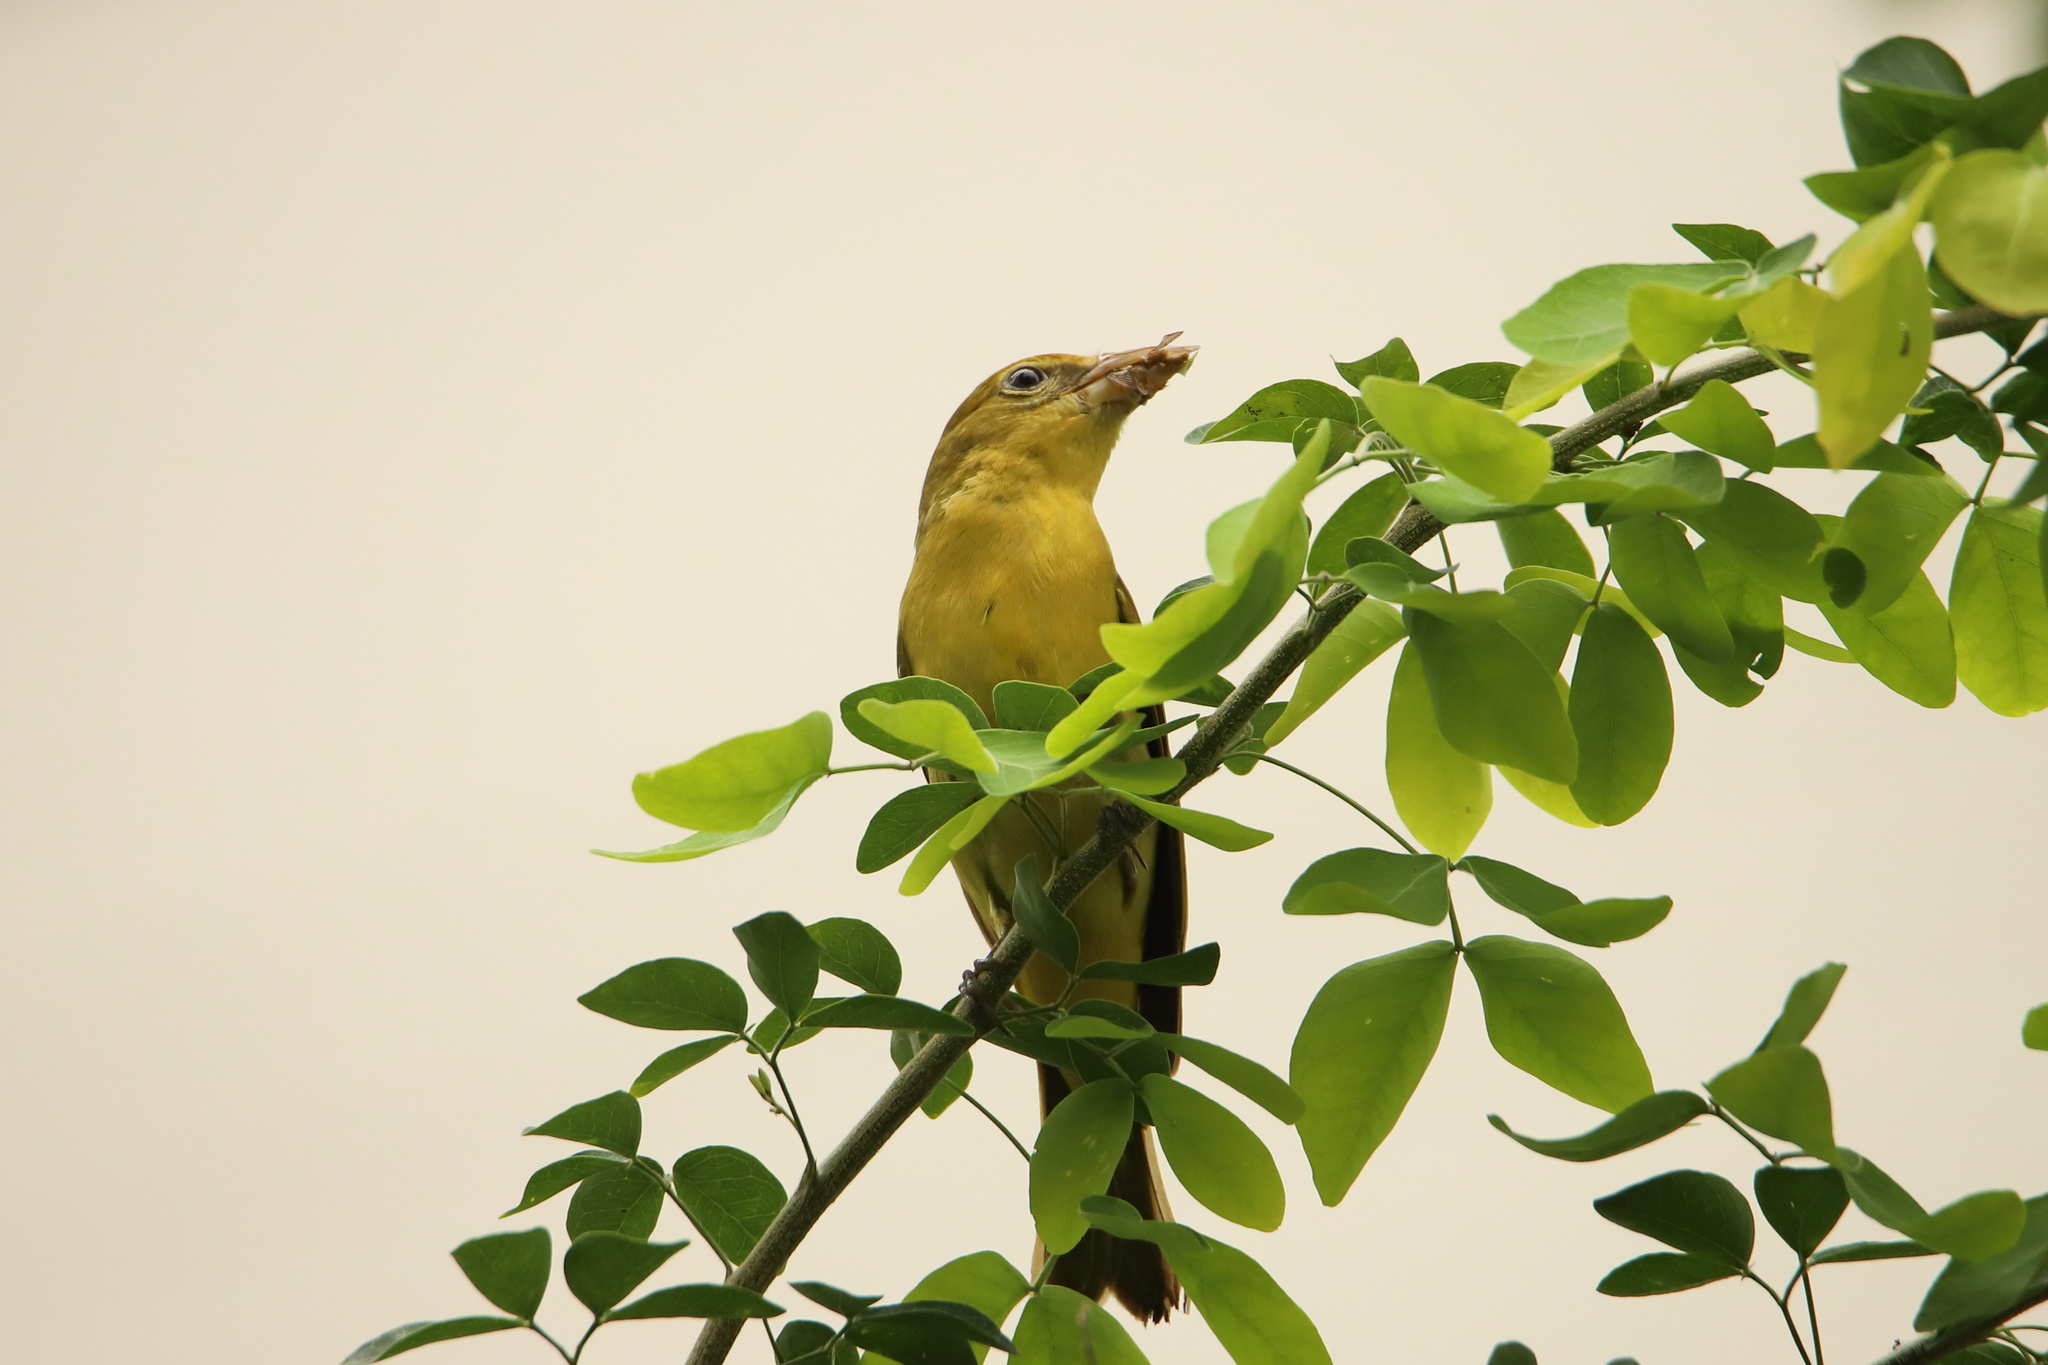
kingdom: Animalia
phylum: Chordata
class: Aves
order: Passeriformes
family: Cardinalidae
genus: Piranga
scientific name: Piranga rubra
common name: Summer tanager
